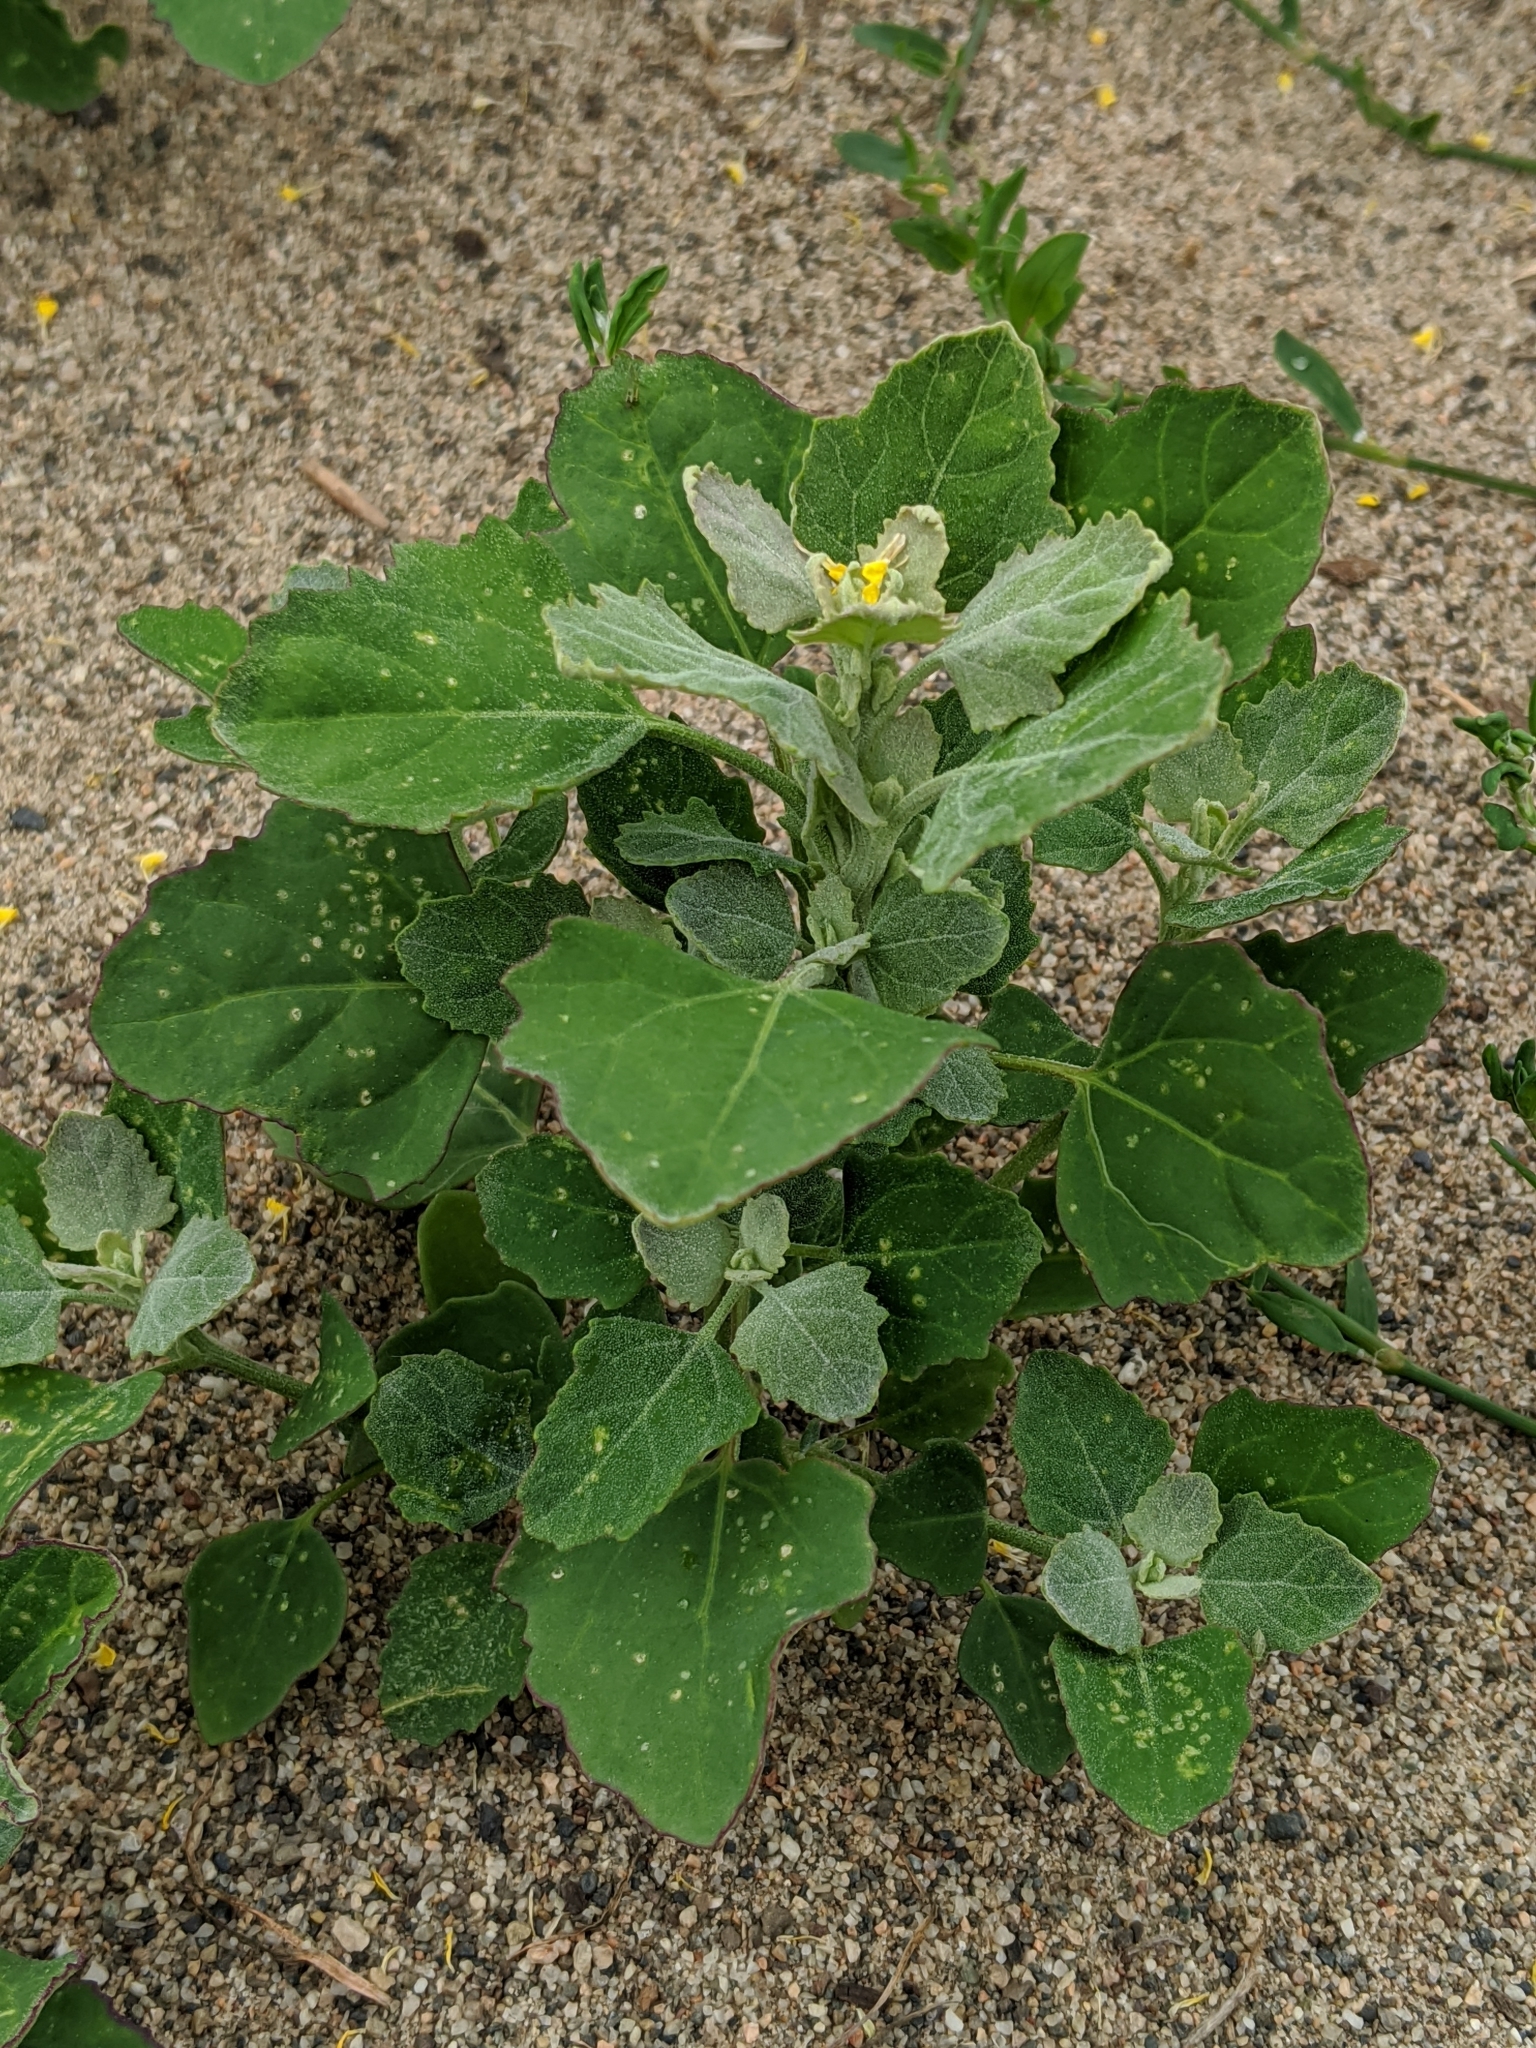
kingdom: Plantae
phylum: Tracheophyta
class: Magnoliopsida
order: Caryophyllales
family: Amaranthaceae
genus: Chenopodium
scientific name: Chenopodium album
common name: Fat-hen
